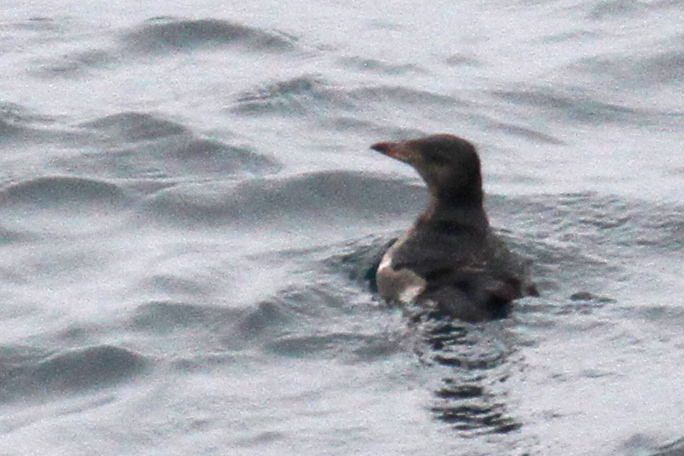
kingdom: Animalia
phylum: Chordata
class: Aves
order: Charadriiformes
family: Alcidae
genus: Cerorhinca
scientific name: Cerorhinca monocerata
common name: Rhinoceros auklet
